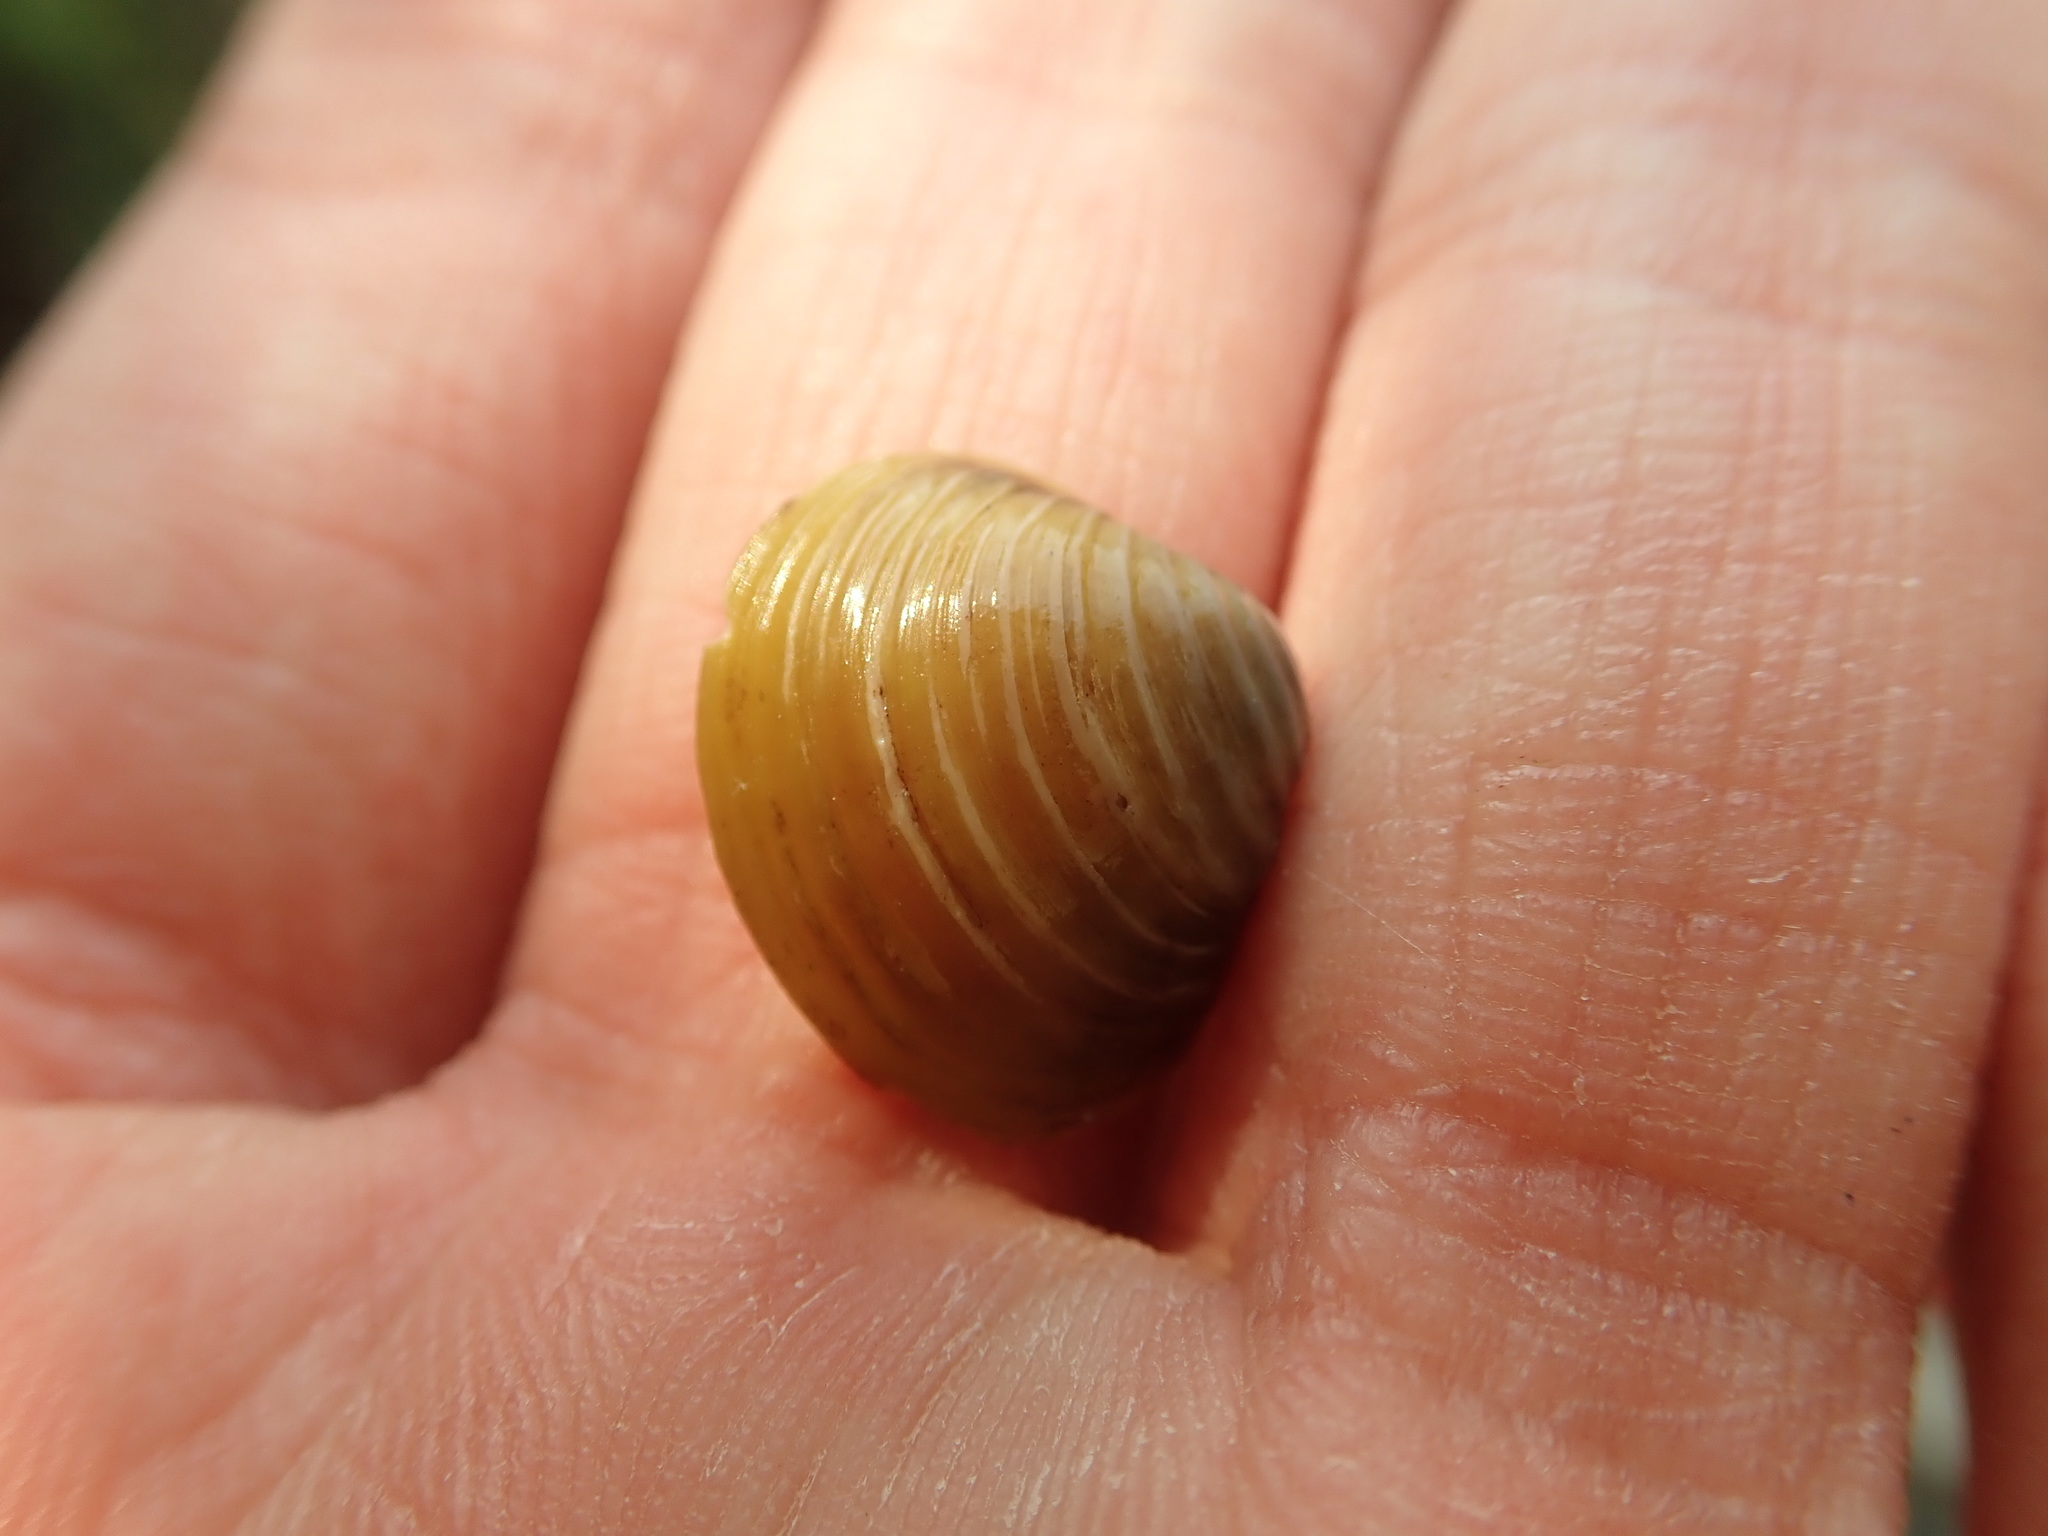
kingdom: Animalia
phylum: Mollusca
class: Bivalvia
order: Venerida
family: Cyrenidae
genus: Corbicula
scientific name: Corbicula fluminea
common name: Asian clam
